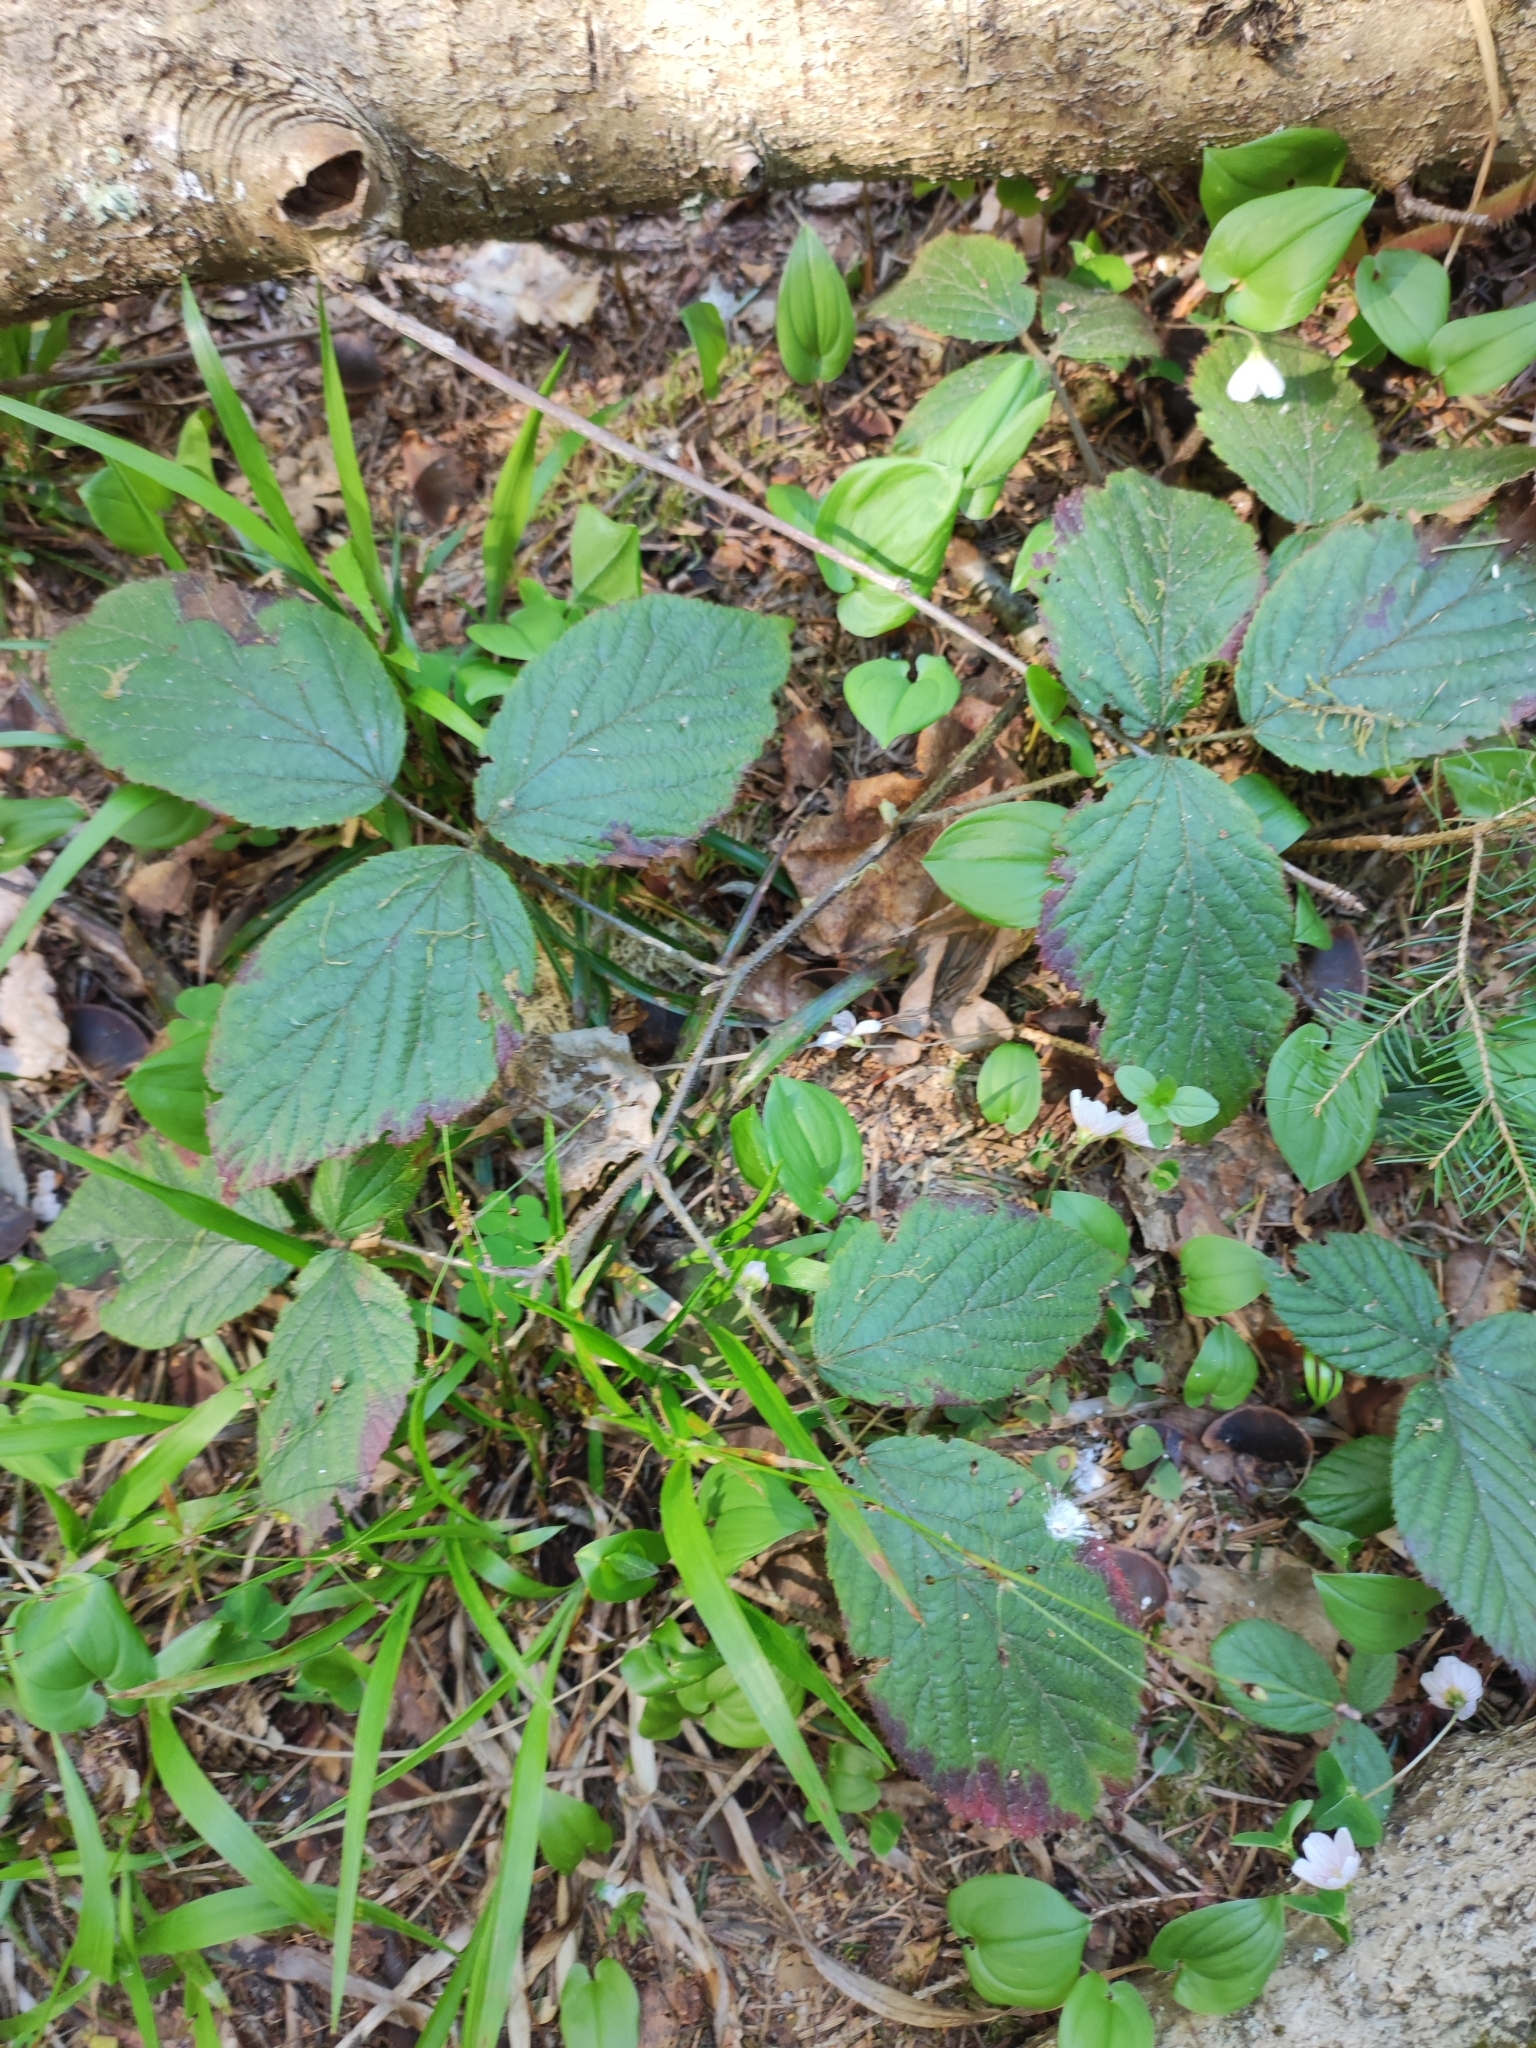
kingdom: Plantae
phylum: Tracheophyta
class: Magnoliopsida
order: Rosales
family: Rosaceae
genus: Rubus
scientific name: Rubus nigricans
